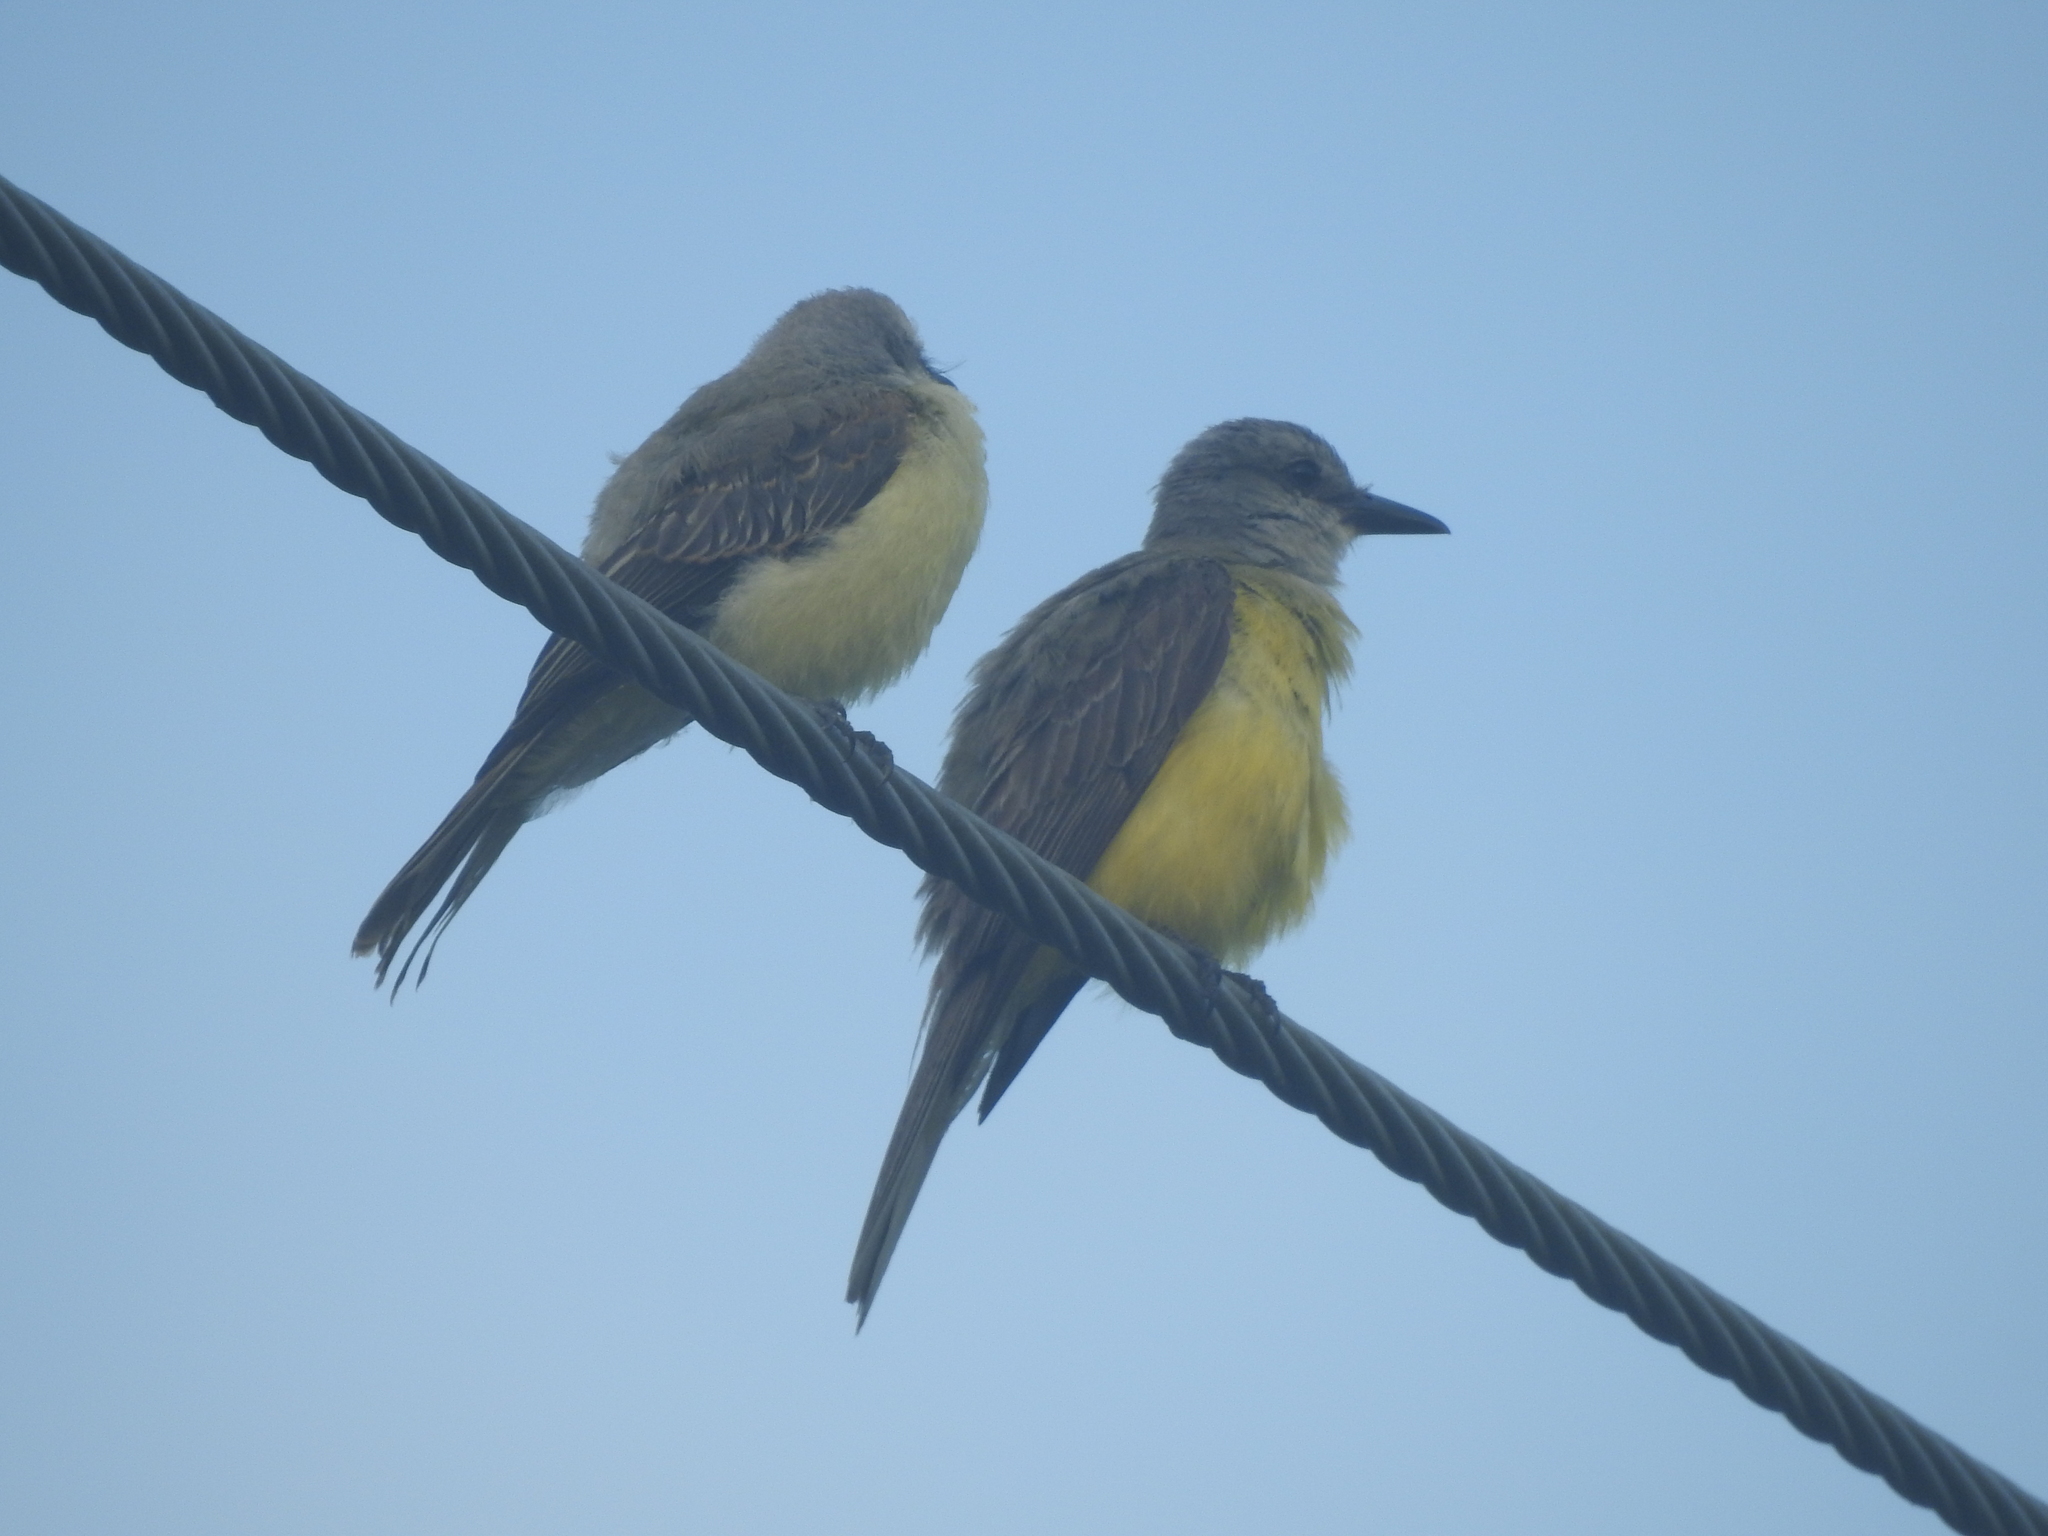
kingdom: Animalia
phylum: Chordata
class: Aves
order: Passeriformes
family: Tyrannidae
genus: Tyrannus
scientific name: Tyrannus couchii
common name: Couch's kingbird
